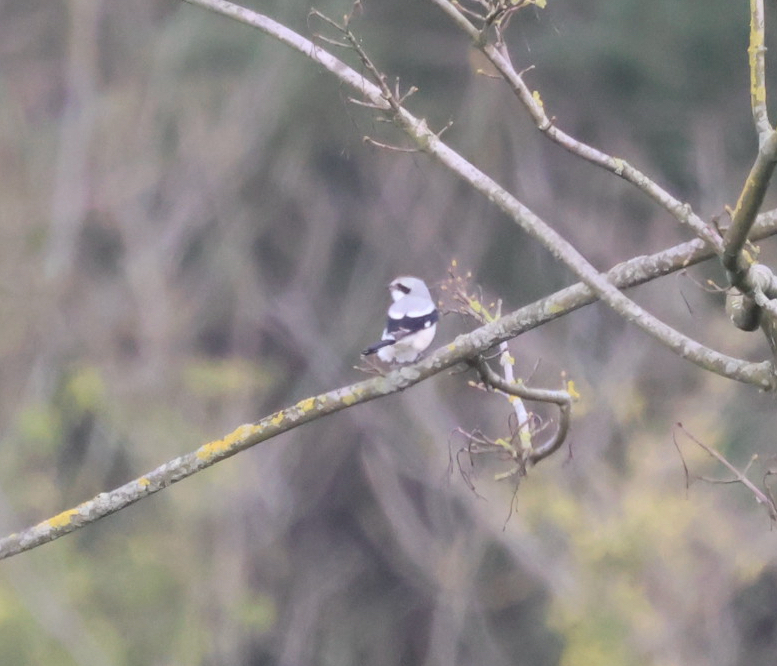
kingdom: Animalia
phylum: Chordata
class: Aves
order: Passeriformes
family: Laniidae
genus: Lanius
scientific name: Lanius excubitor
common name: Great grey shrike
